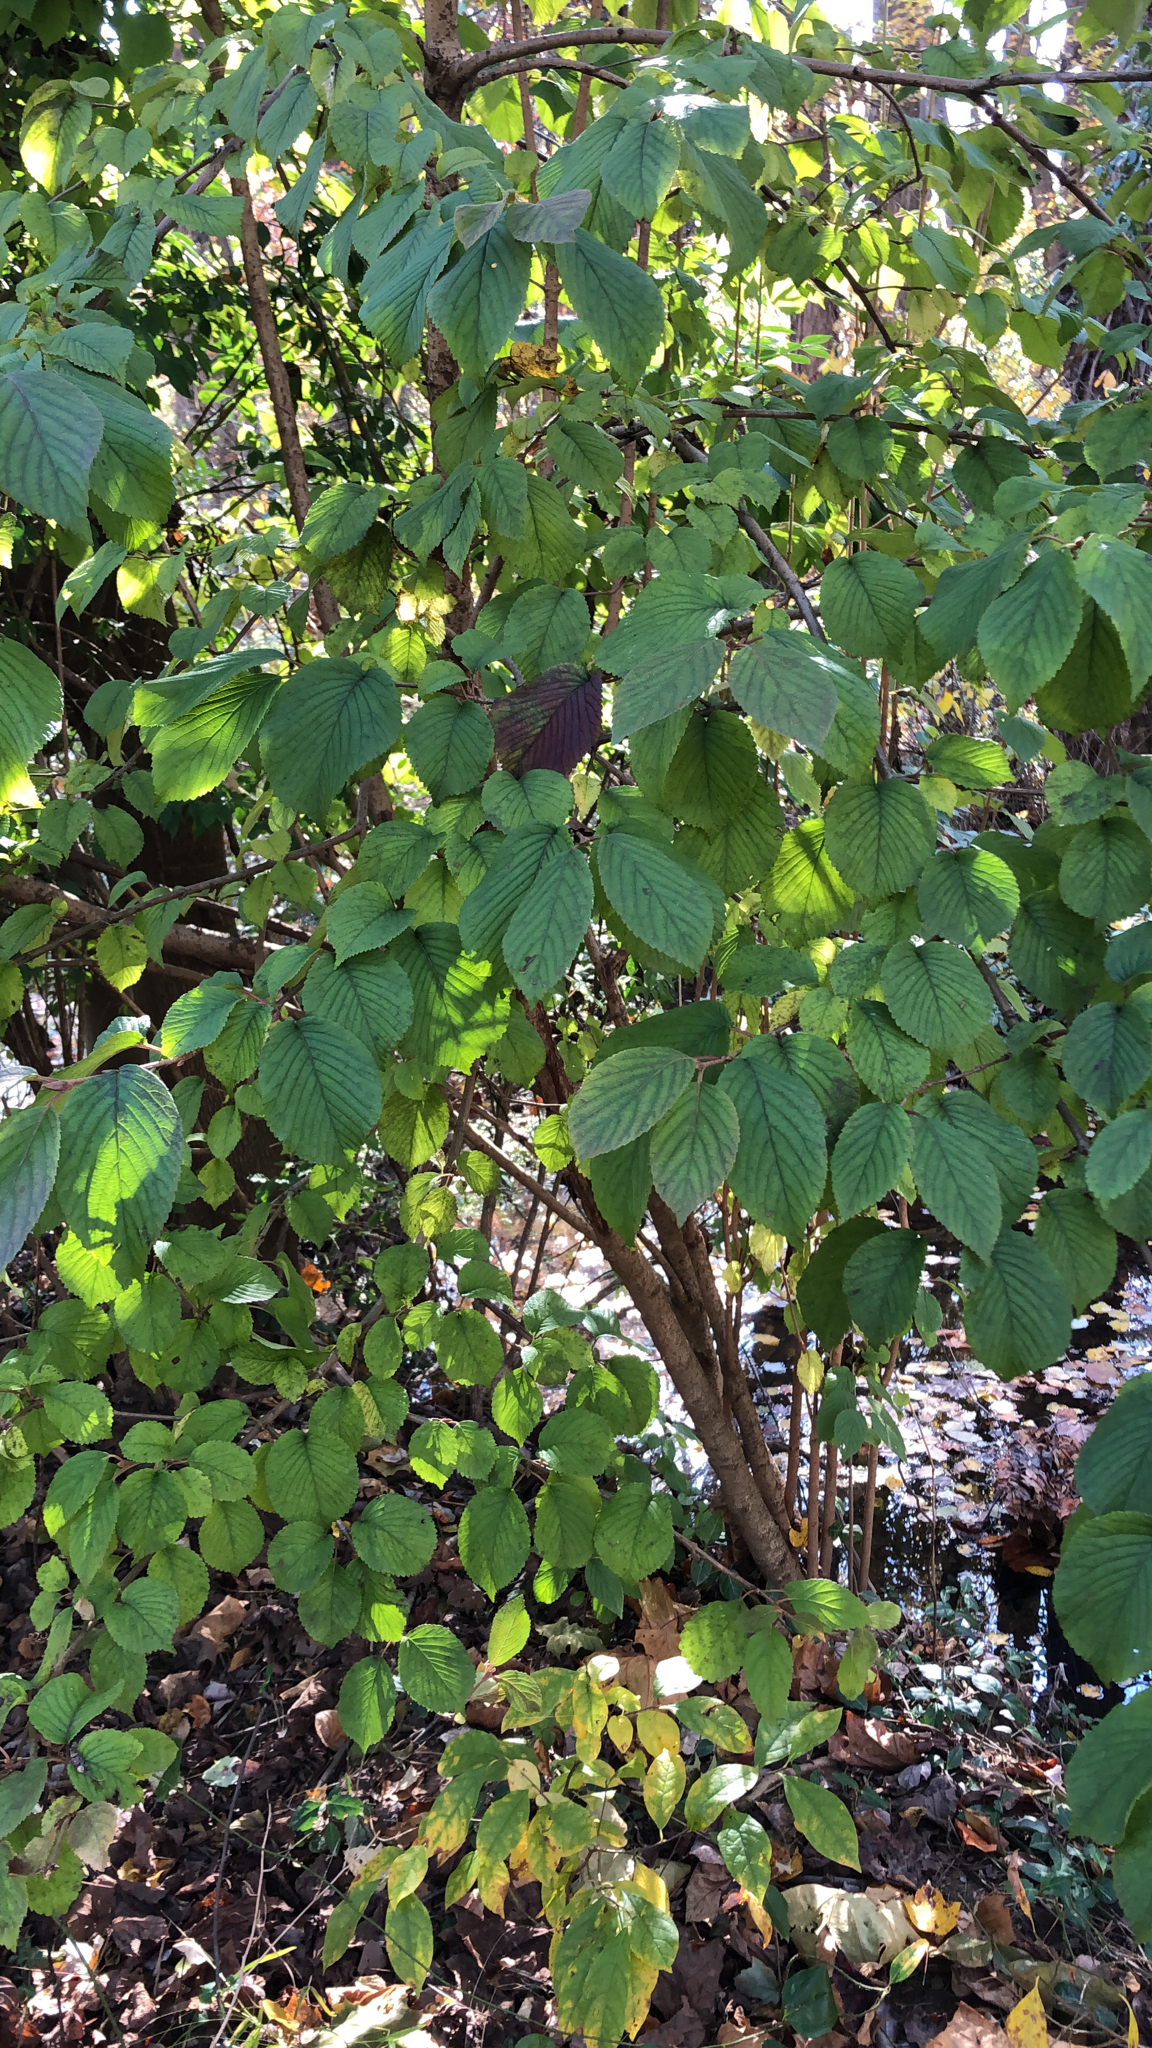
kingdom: Plantae
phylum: Tracheophyta
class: Magnoliopsida
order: Dipsacales
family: Viburnaceae
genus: Viburnum
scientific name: Viburnum plicatum
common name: Japanese snowball
